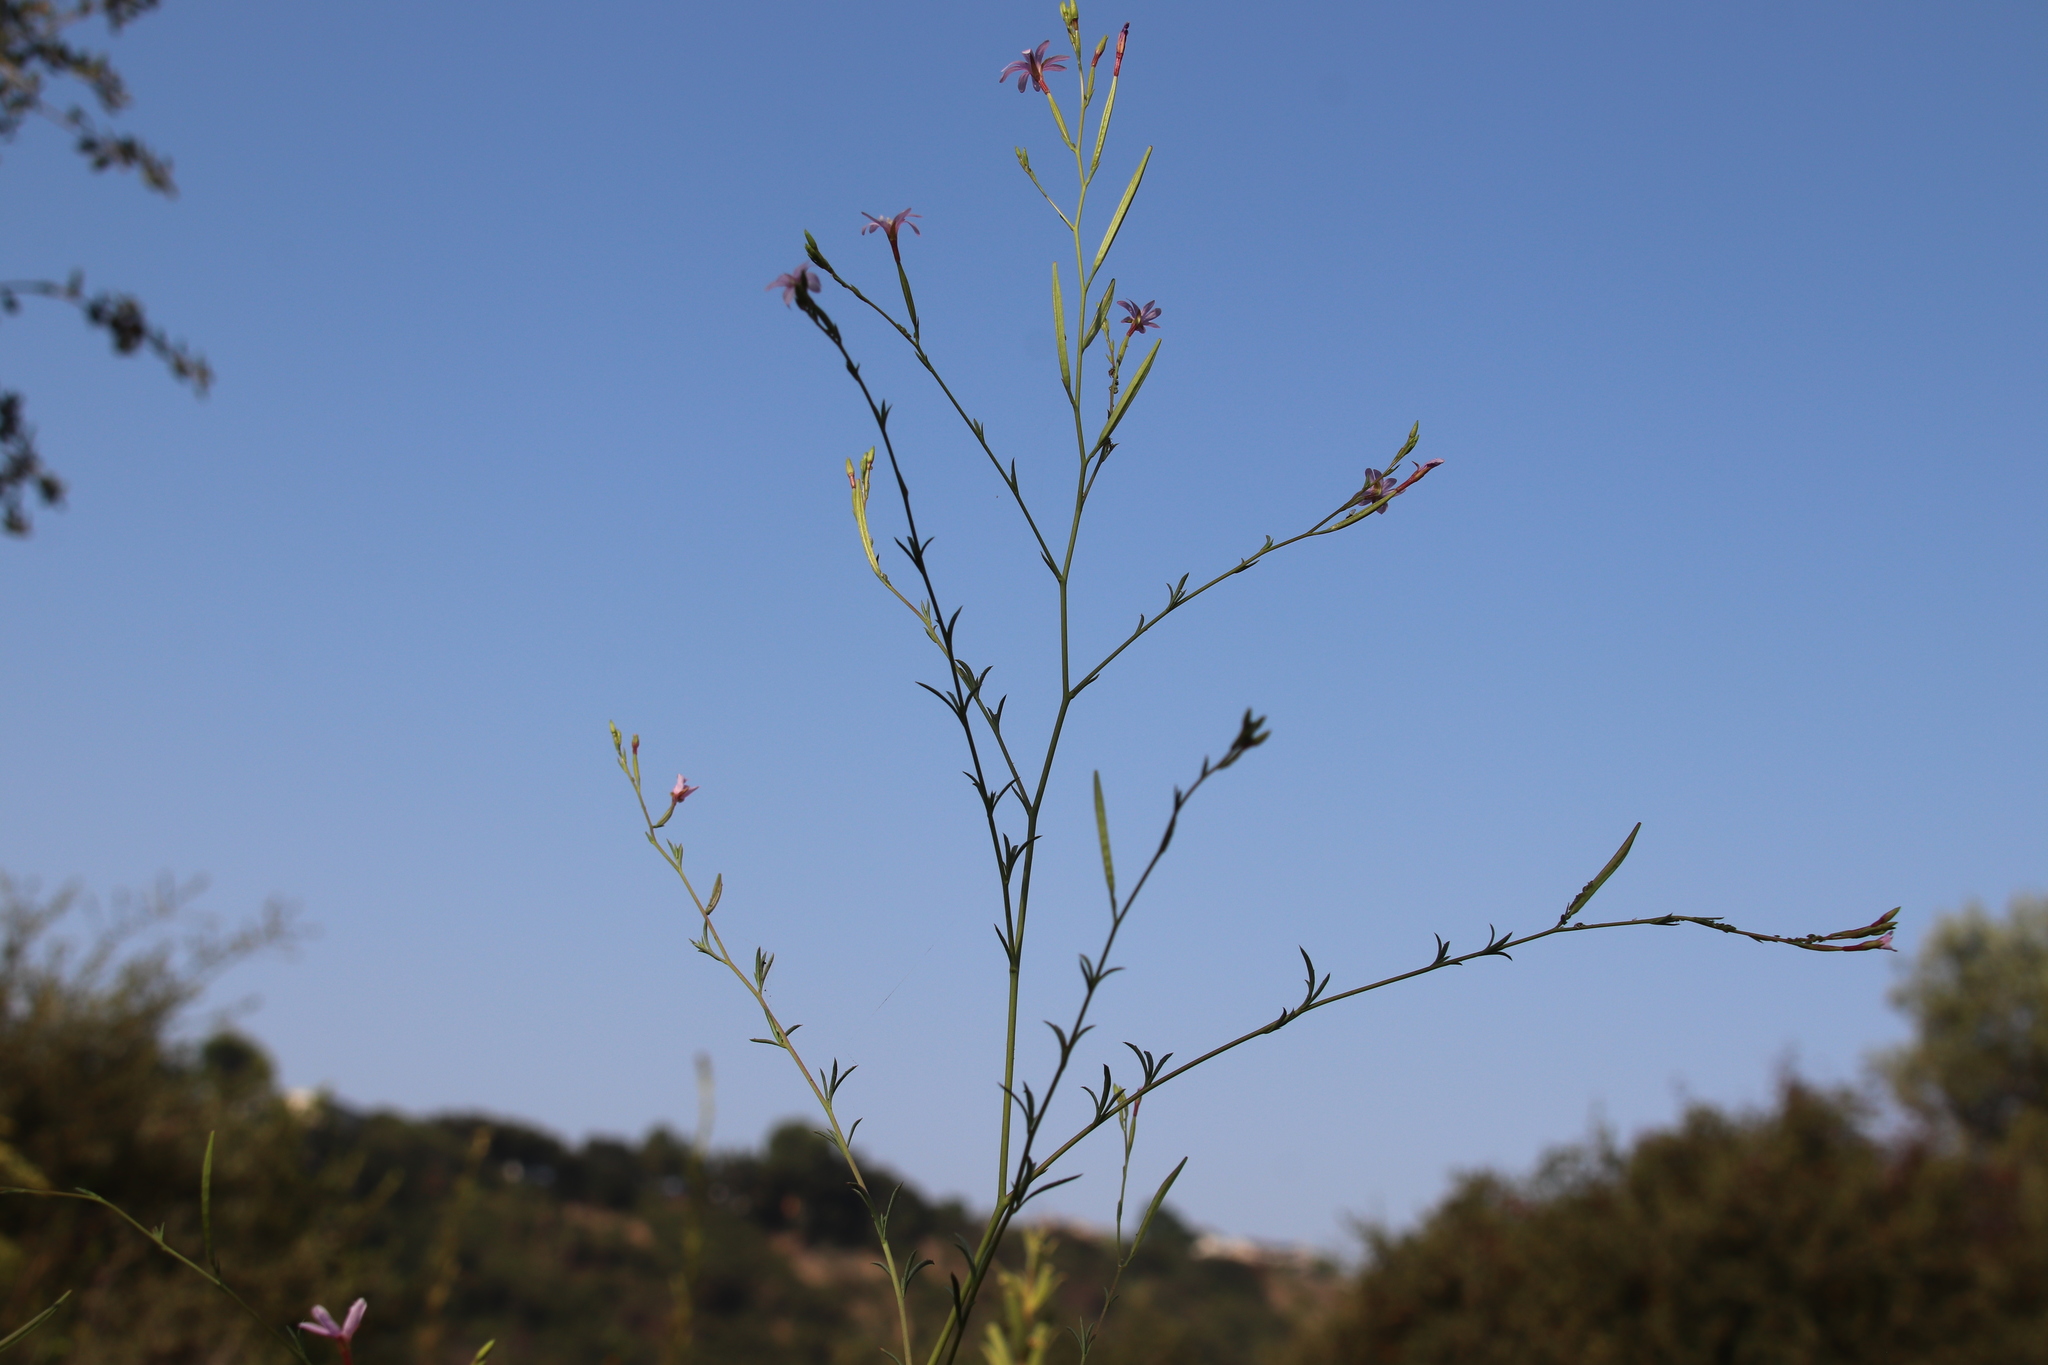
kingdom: Plantae
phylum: Tracheophyta
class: Magnoliopsida
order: Myrtales
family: Onagraceae
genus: Epilobium
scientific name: Epilobium brachycarpum
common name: Annual willowherb
